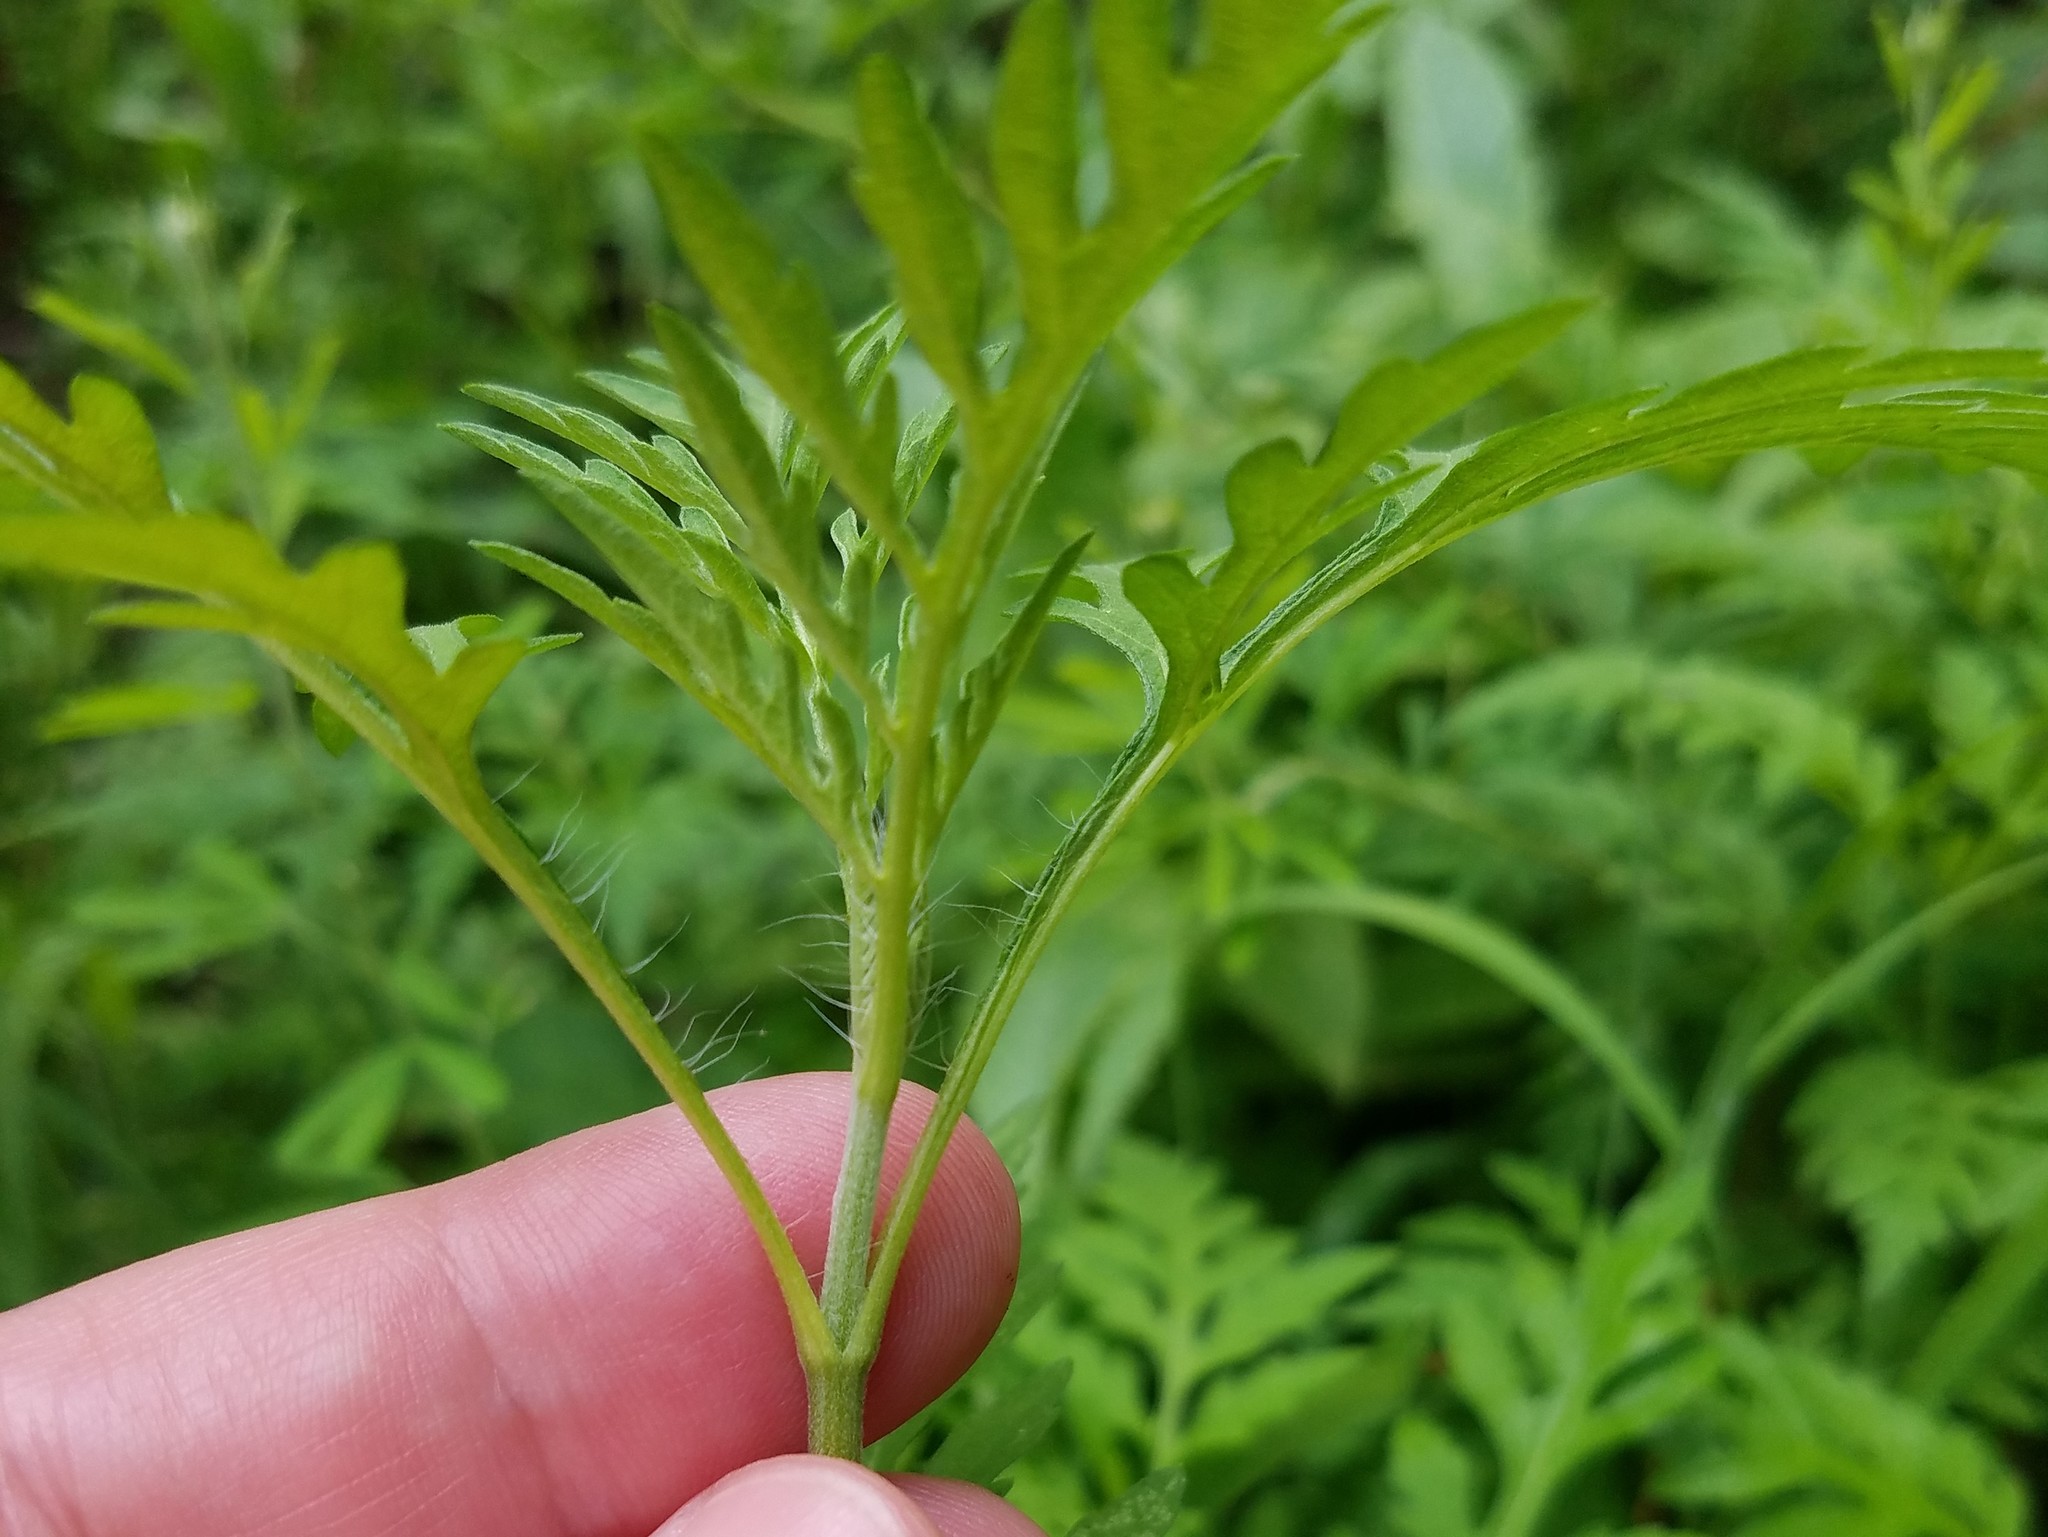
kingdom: Plantae
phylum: Tracheophyta
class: Magnoliopsida
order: Asterales
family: Asteraceae
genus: Ambrosia
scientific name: Ambrosia artemisiifolia
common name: Annual ragweed
